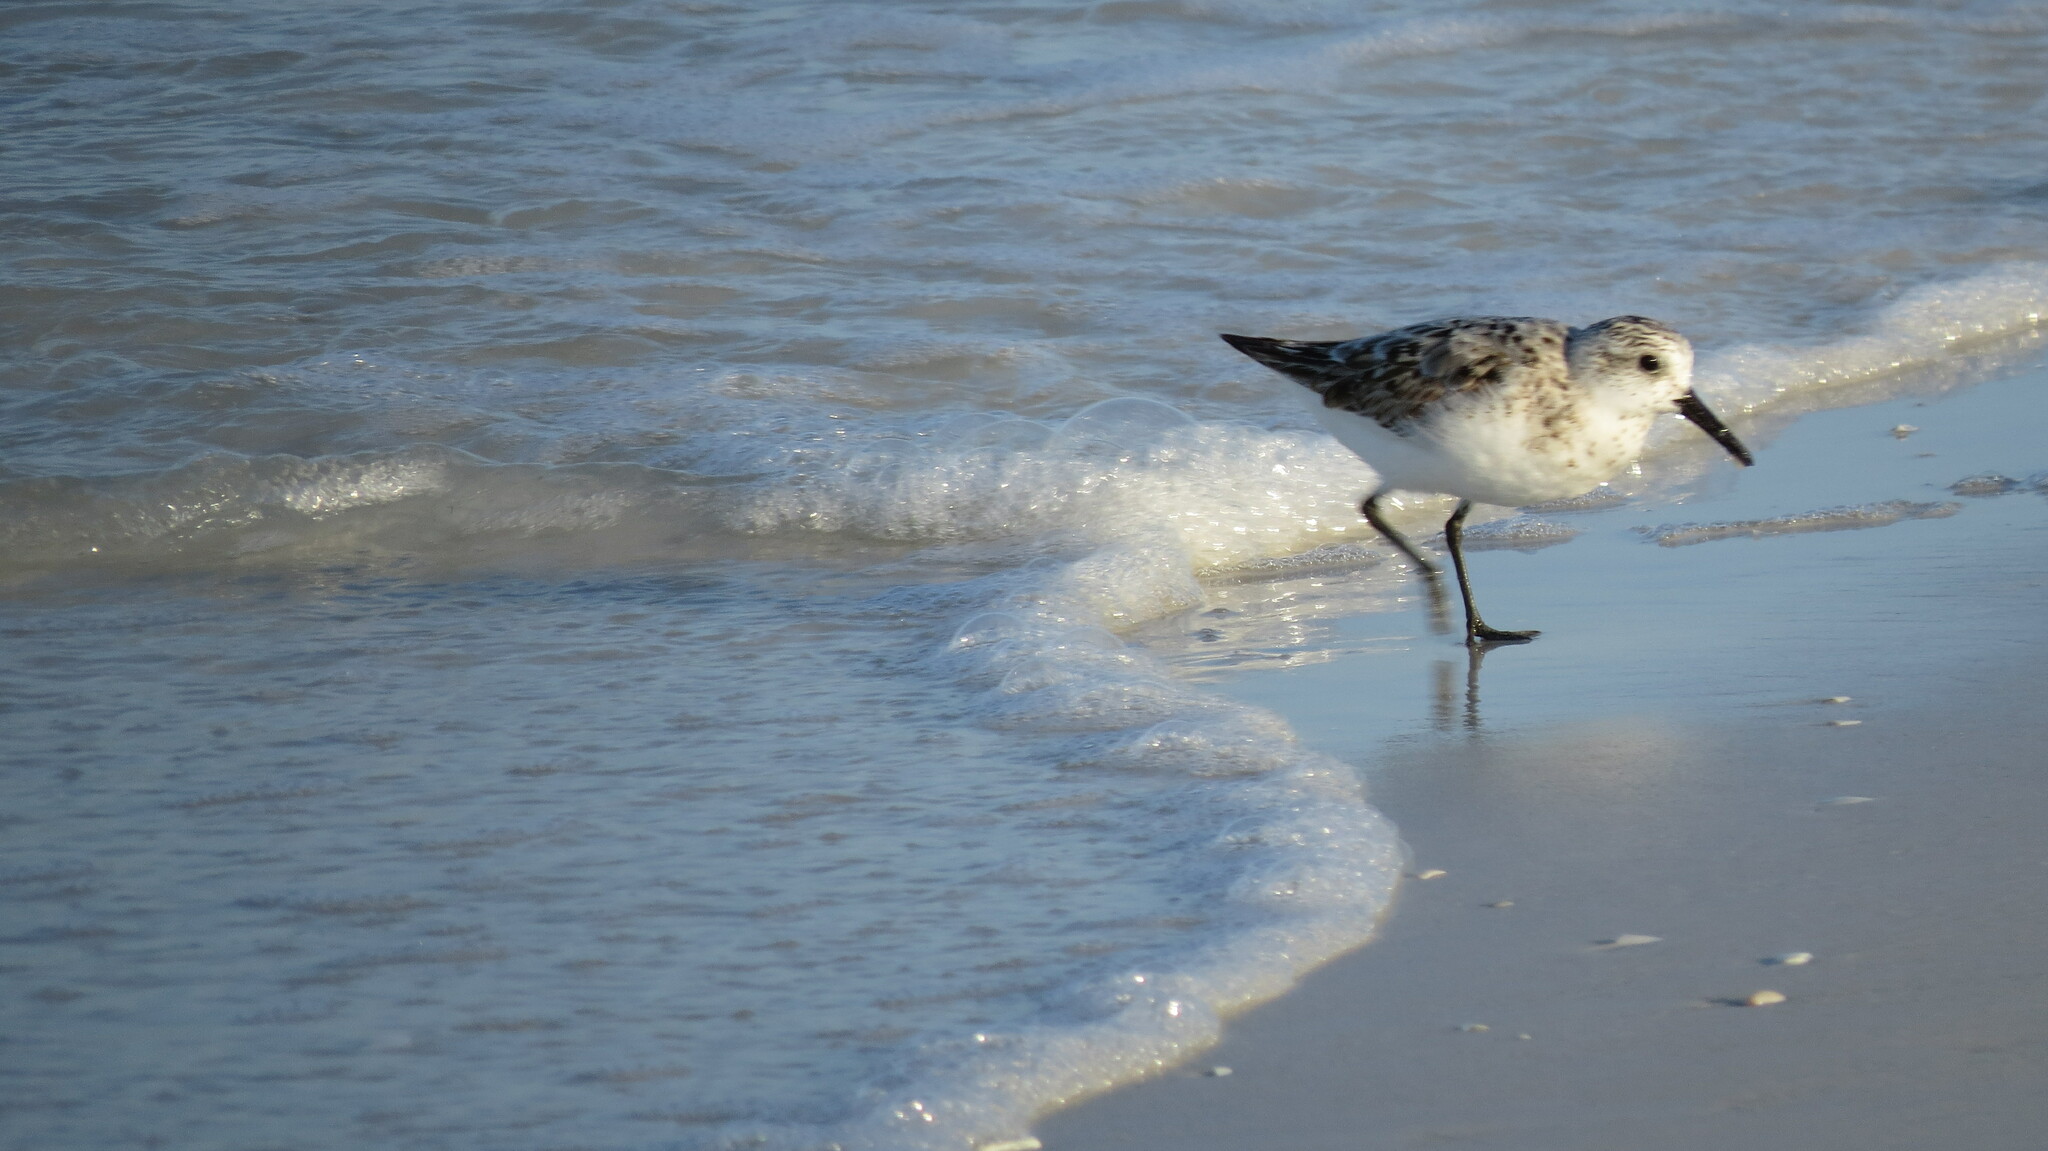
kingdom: Animalia
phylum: Chordata
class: Aves
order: Charadriiformes
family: Scolopacidae
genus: Calidris
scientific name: Calidris alba
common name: Sanderling
